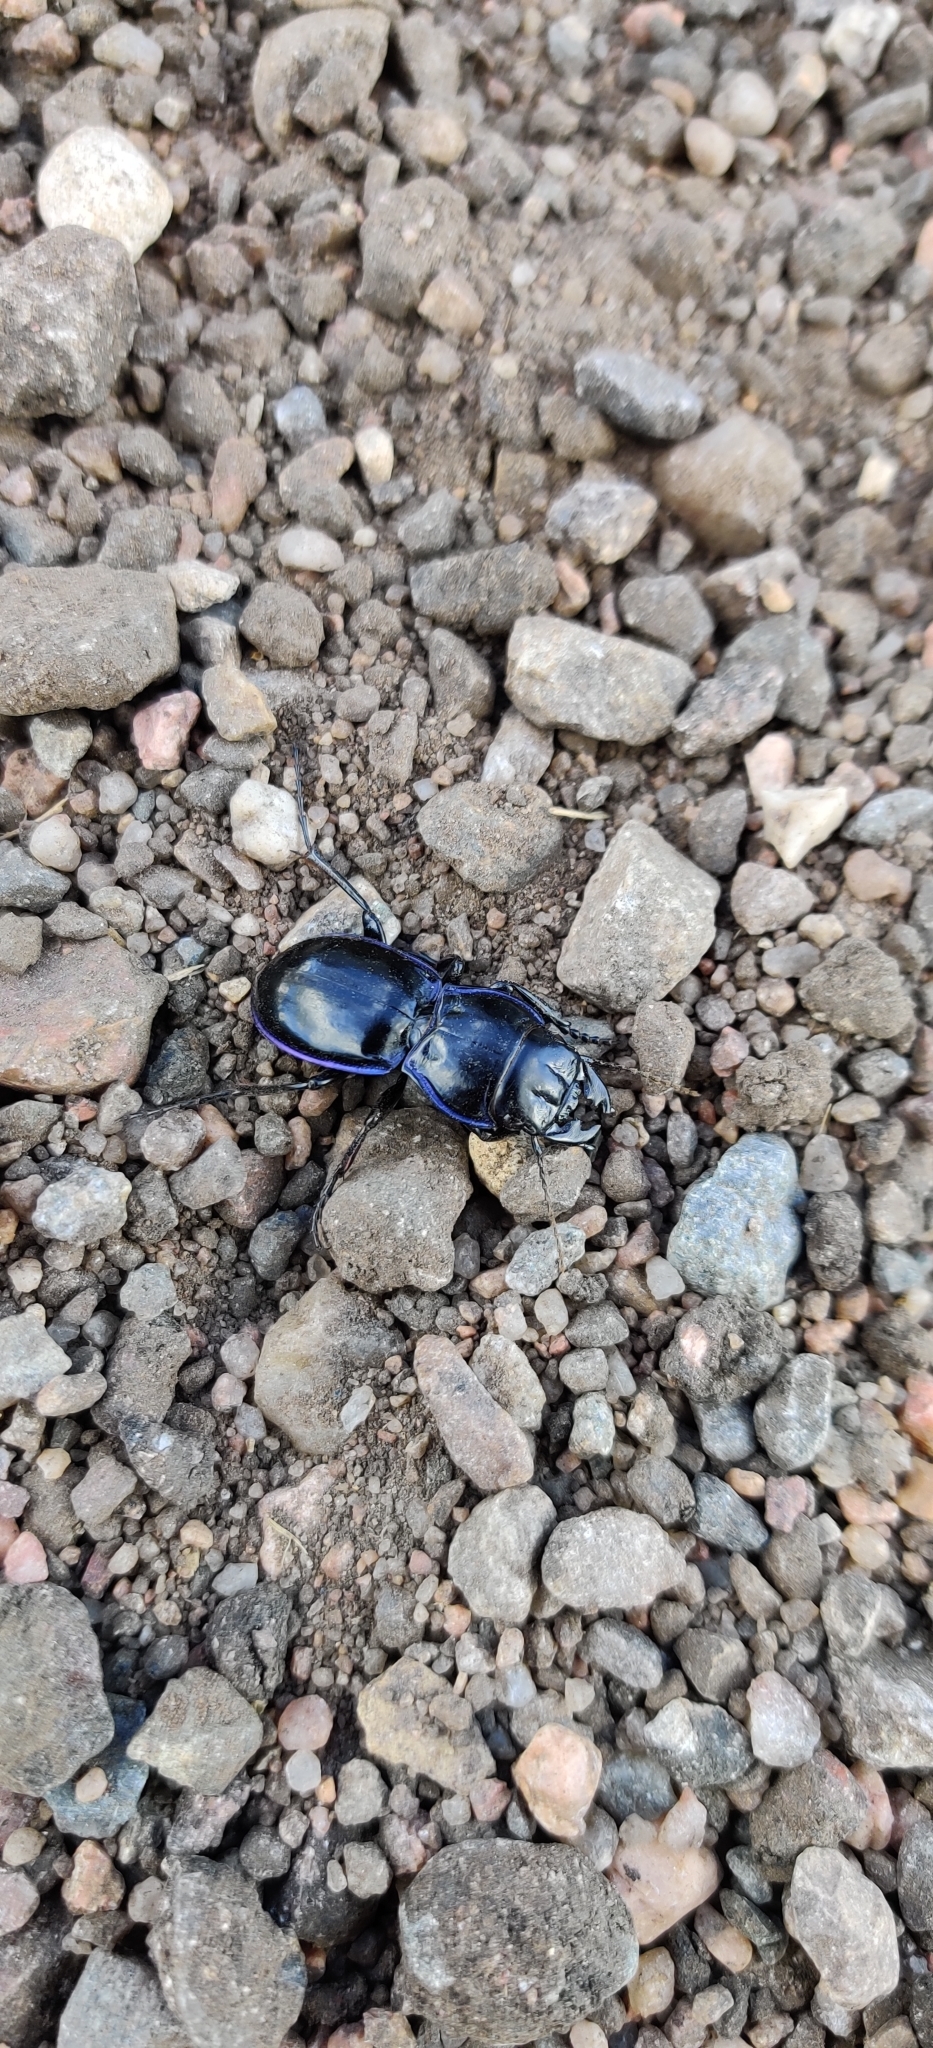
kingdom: Animalia
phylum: Arthropoda
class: Insecta
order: Coleoptera
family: Carabidae
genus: Pasimachus
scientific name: Pasimachus elongatus
